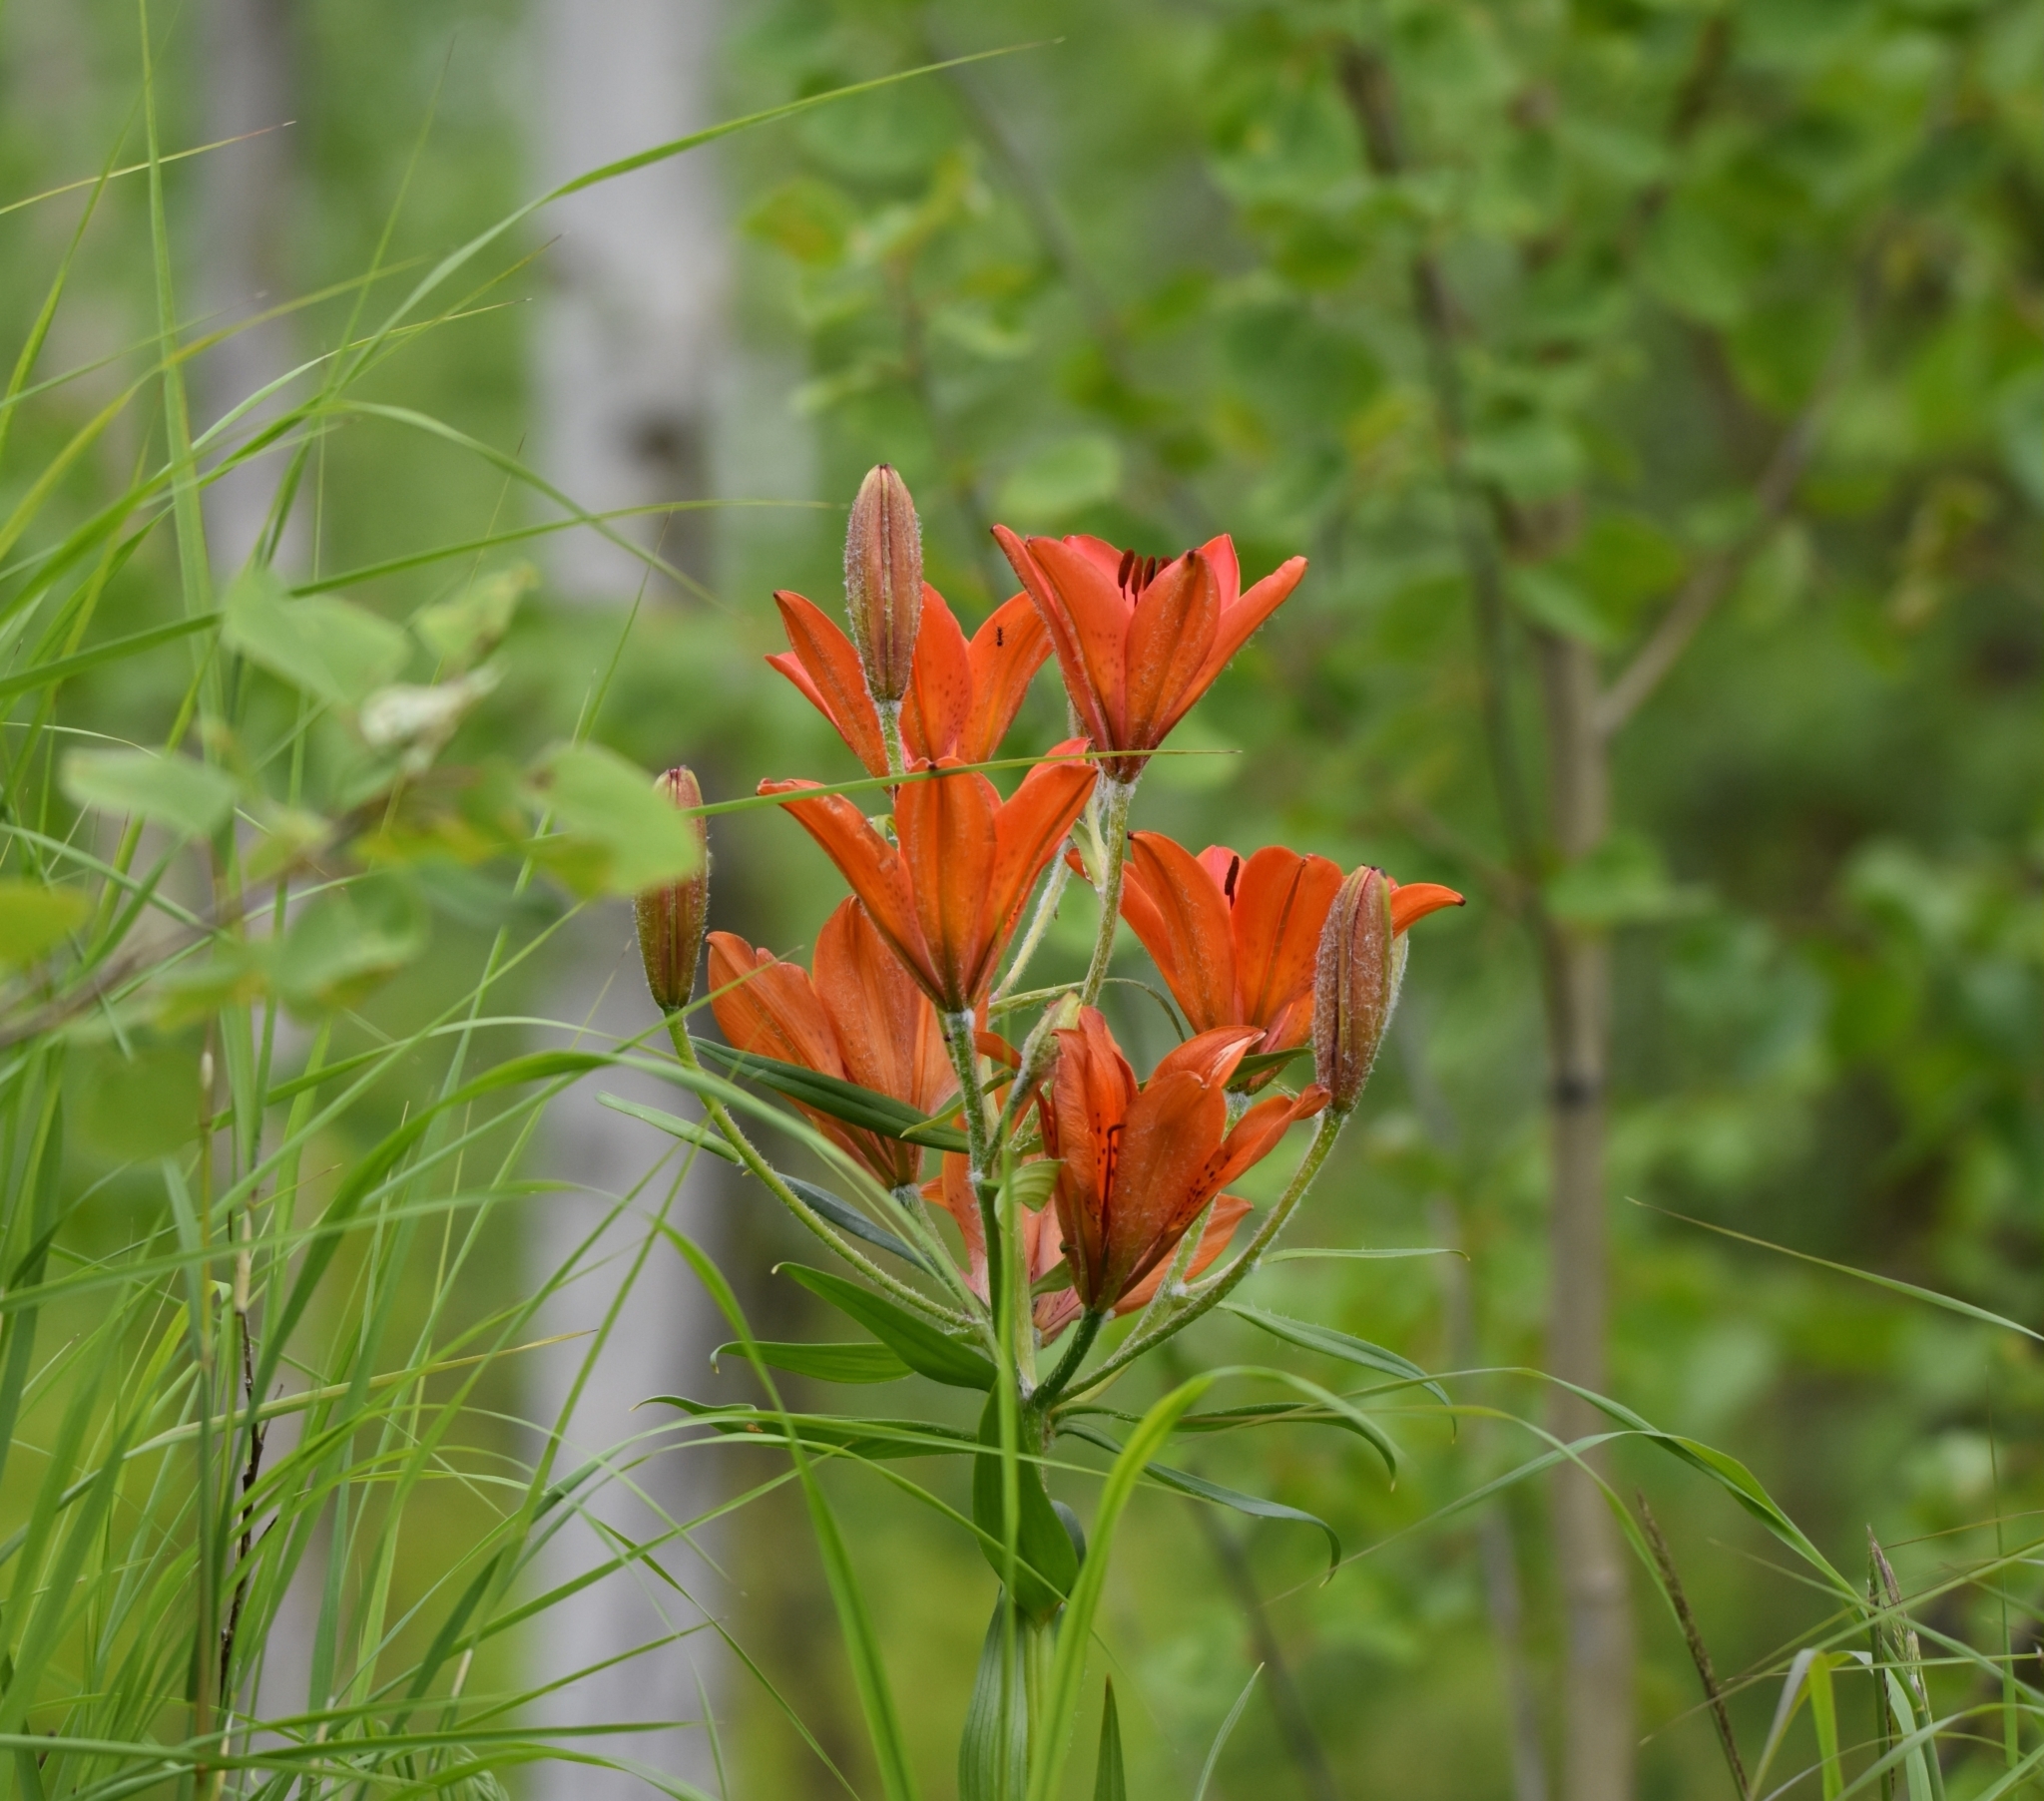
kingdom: Plantae
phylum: Tracheophyta
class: Liliopsida
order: Liliales
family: Liliaceae
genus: Lilium
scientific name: Lilium pensylvanicum
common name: Candlestick lily
